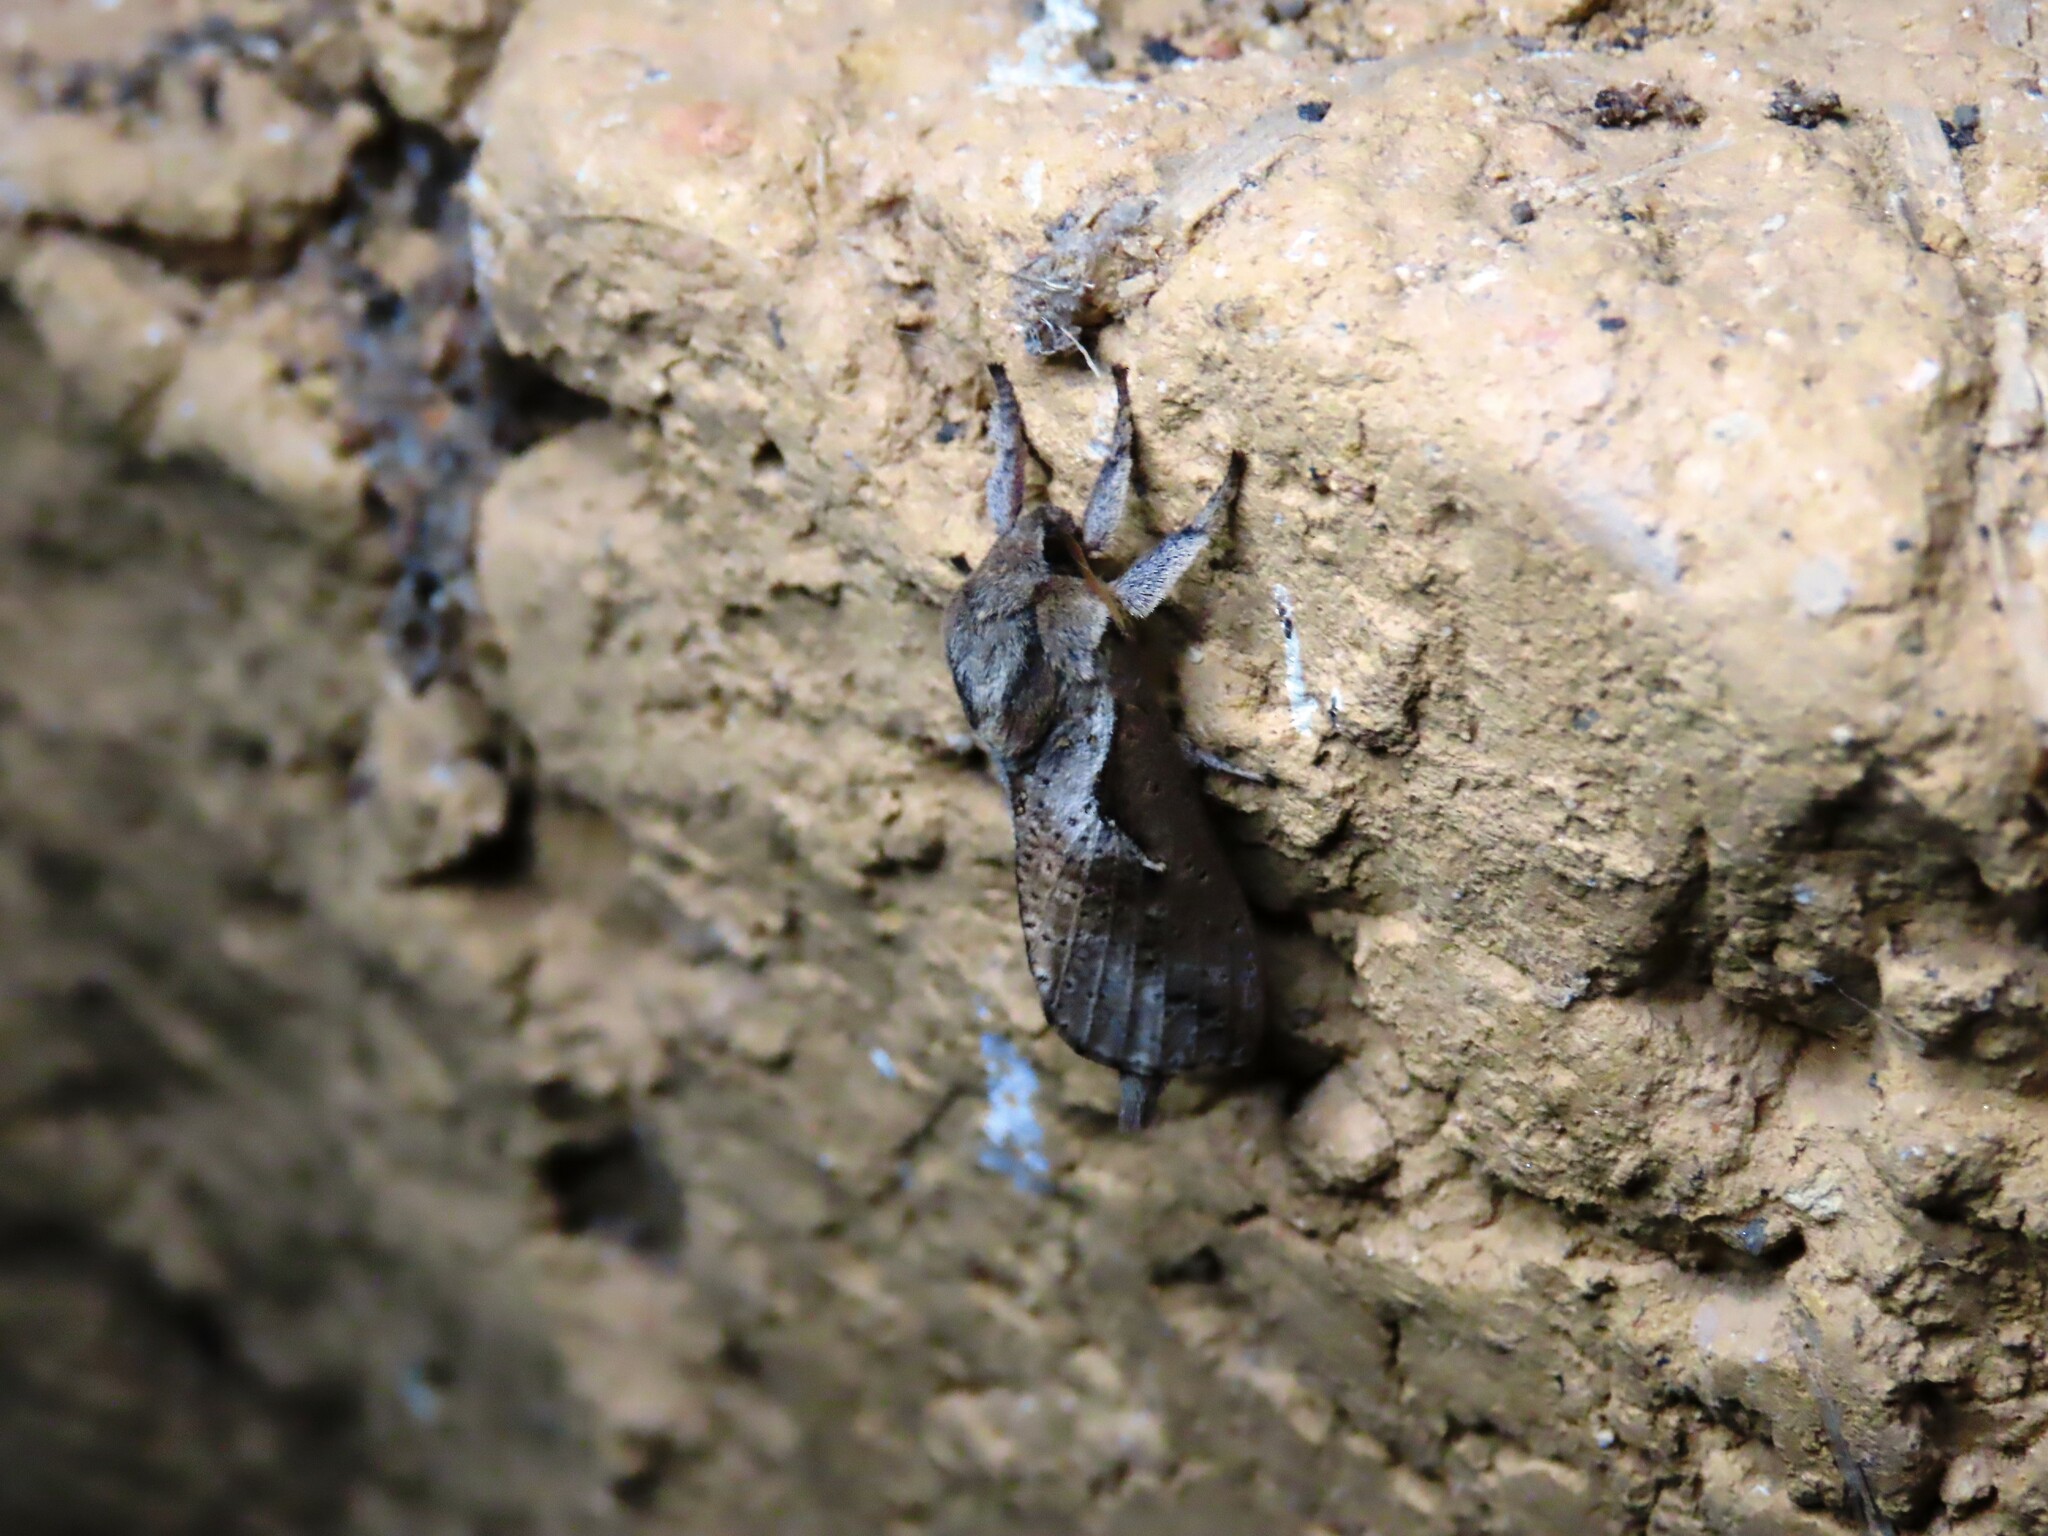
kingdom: Animalia
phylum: Arthropoda
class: Insecta
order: Lepidoptera
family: Hepialidae
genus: Elhamma
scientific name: Elhamma australasiae
